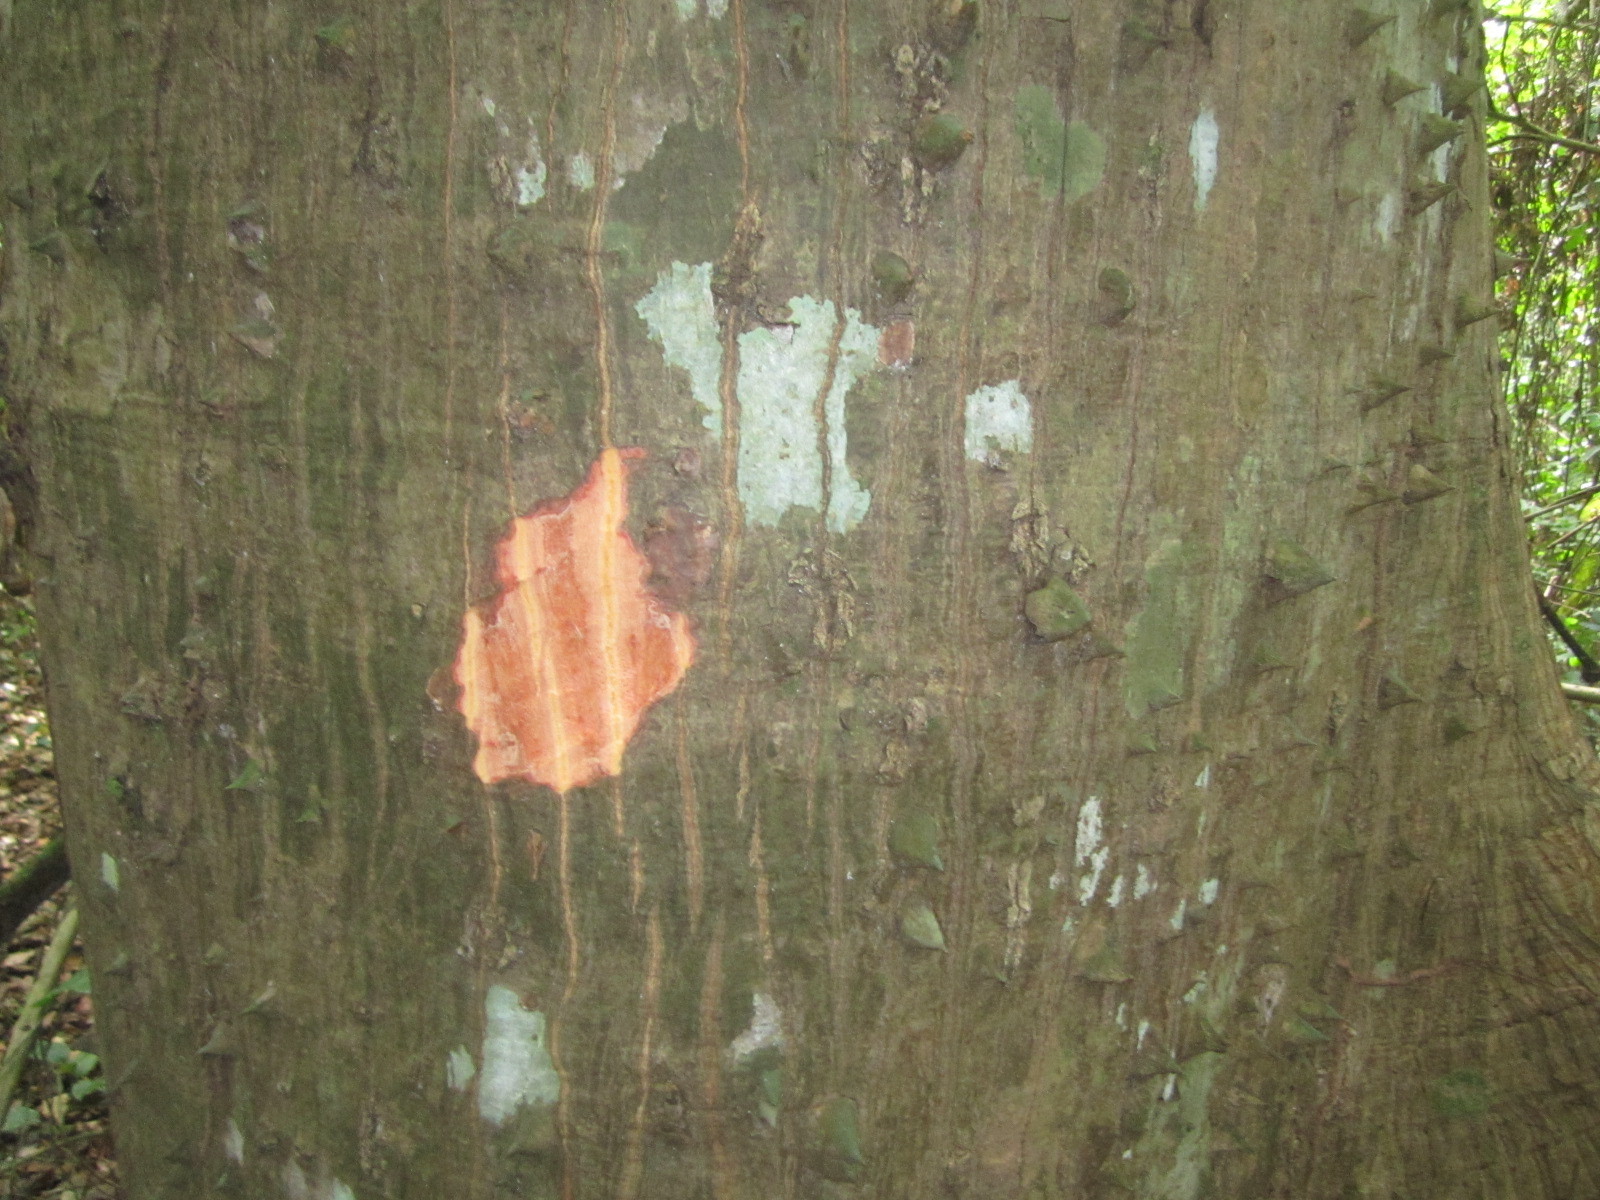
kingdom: Plantae
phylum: Tracheophyta
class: Magnoliopsida
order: Malvales
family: Malvaceae
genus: Ceiba
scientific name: Ceiba pentandra
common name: Kapok
